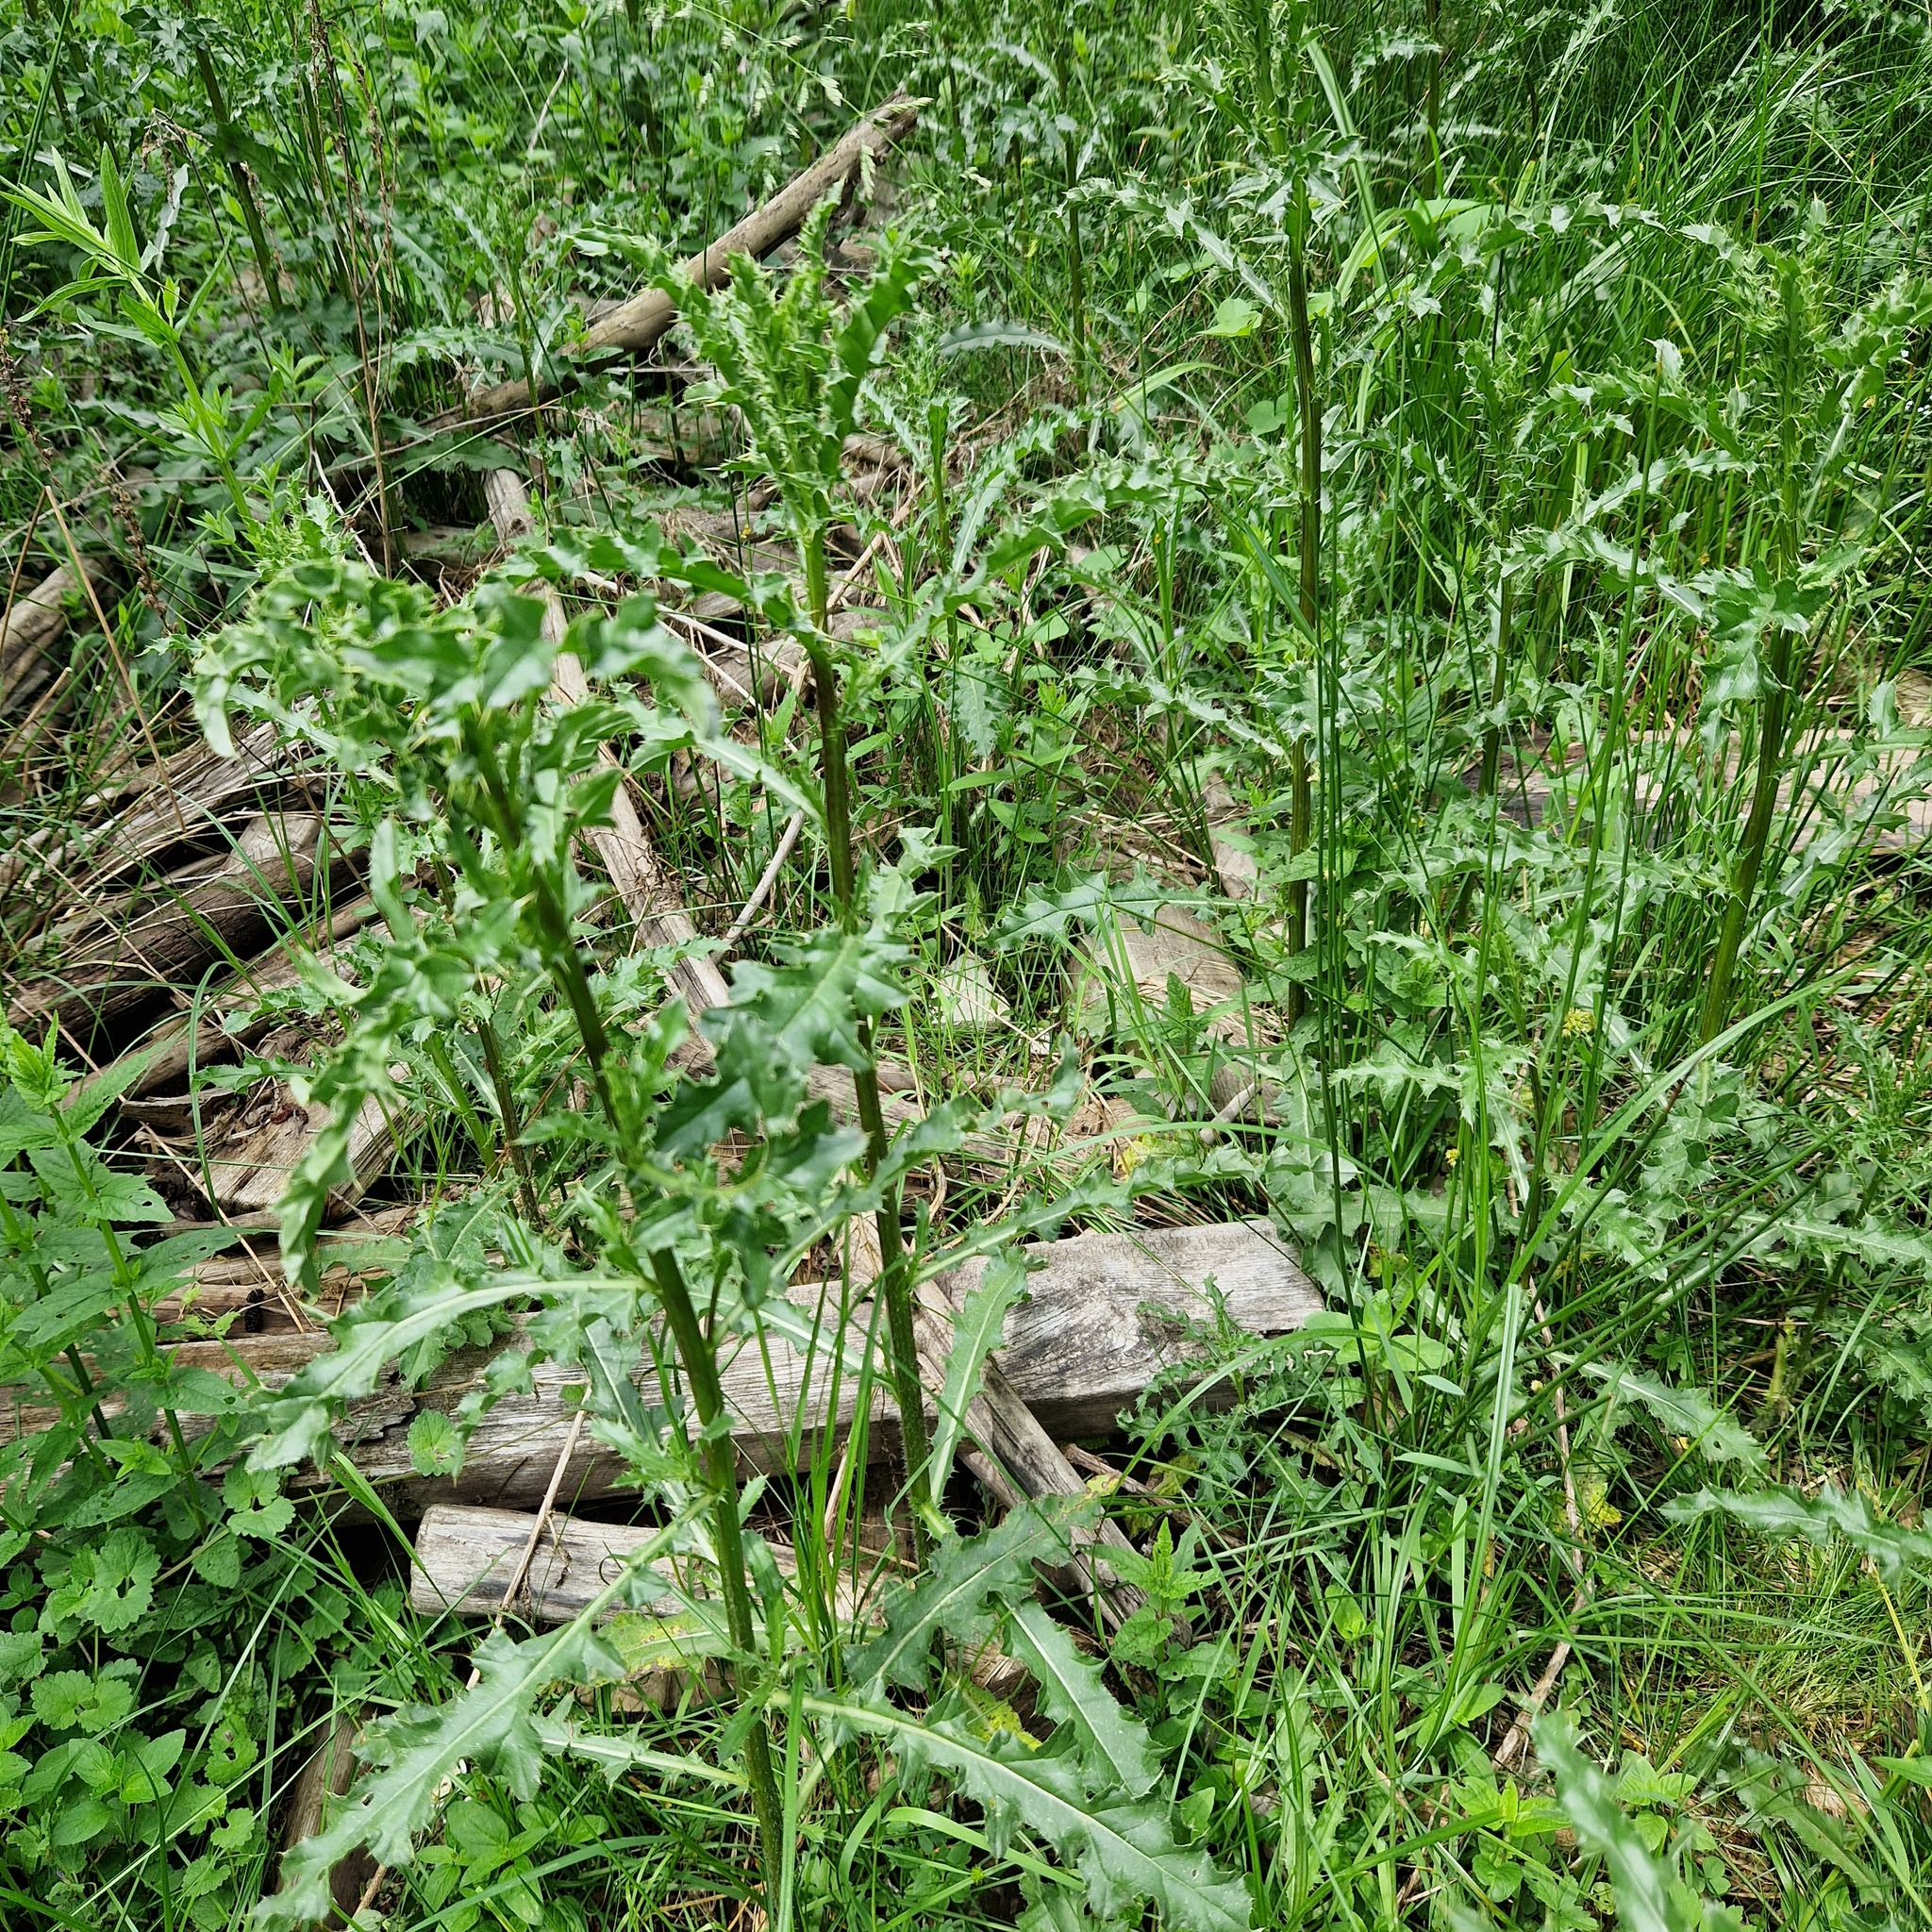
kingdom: Plantae
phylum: Tracheophyta
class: Magnoliopsida
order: Asterales
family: Asteraceae
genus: Cirsium
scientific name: Cirsium arvense
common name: Creeping thistle
